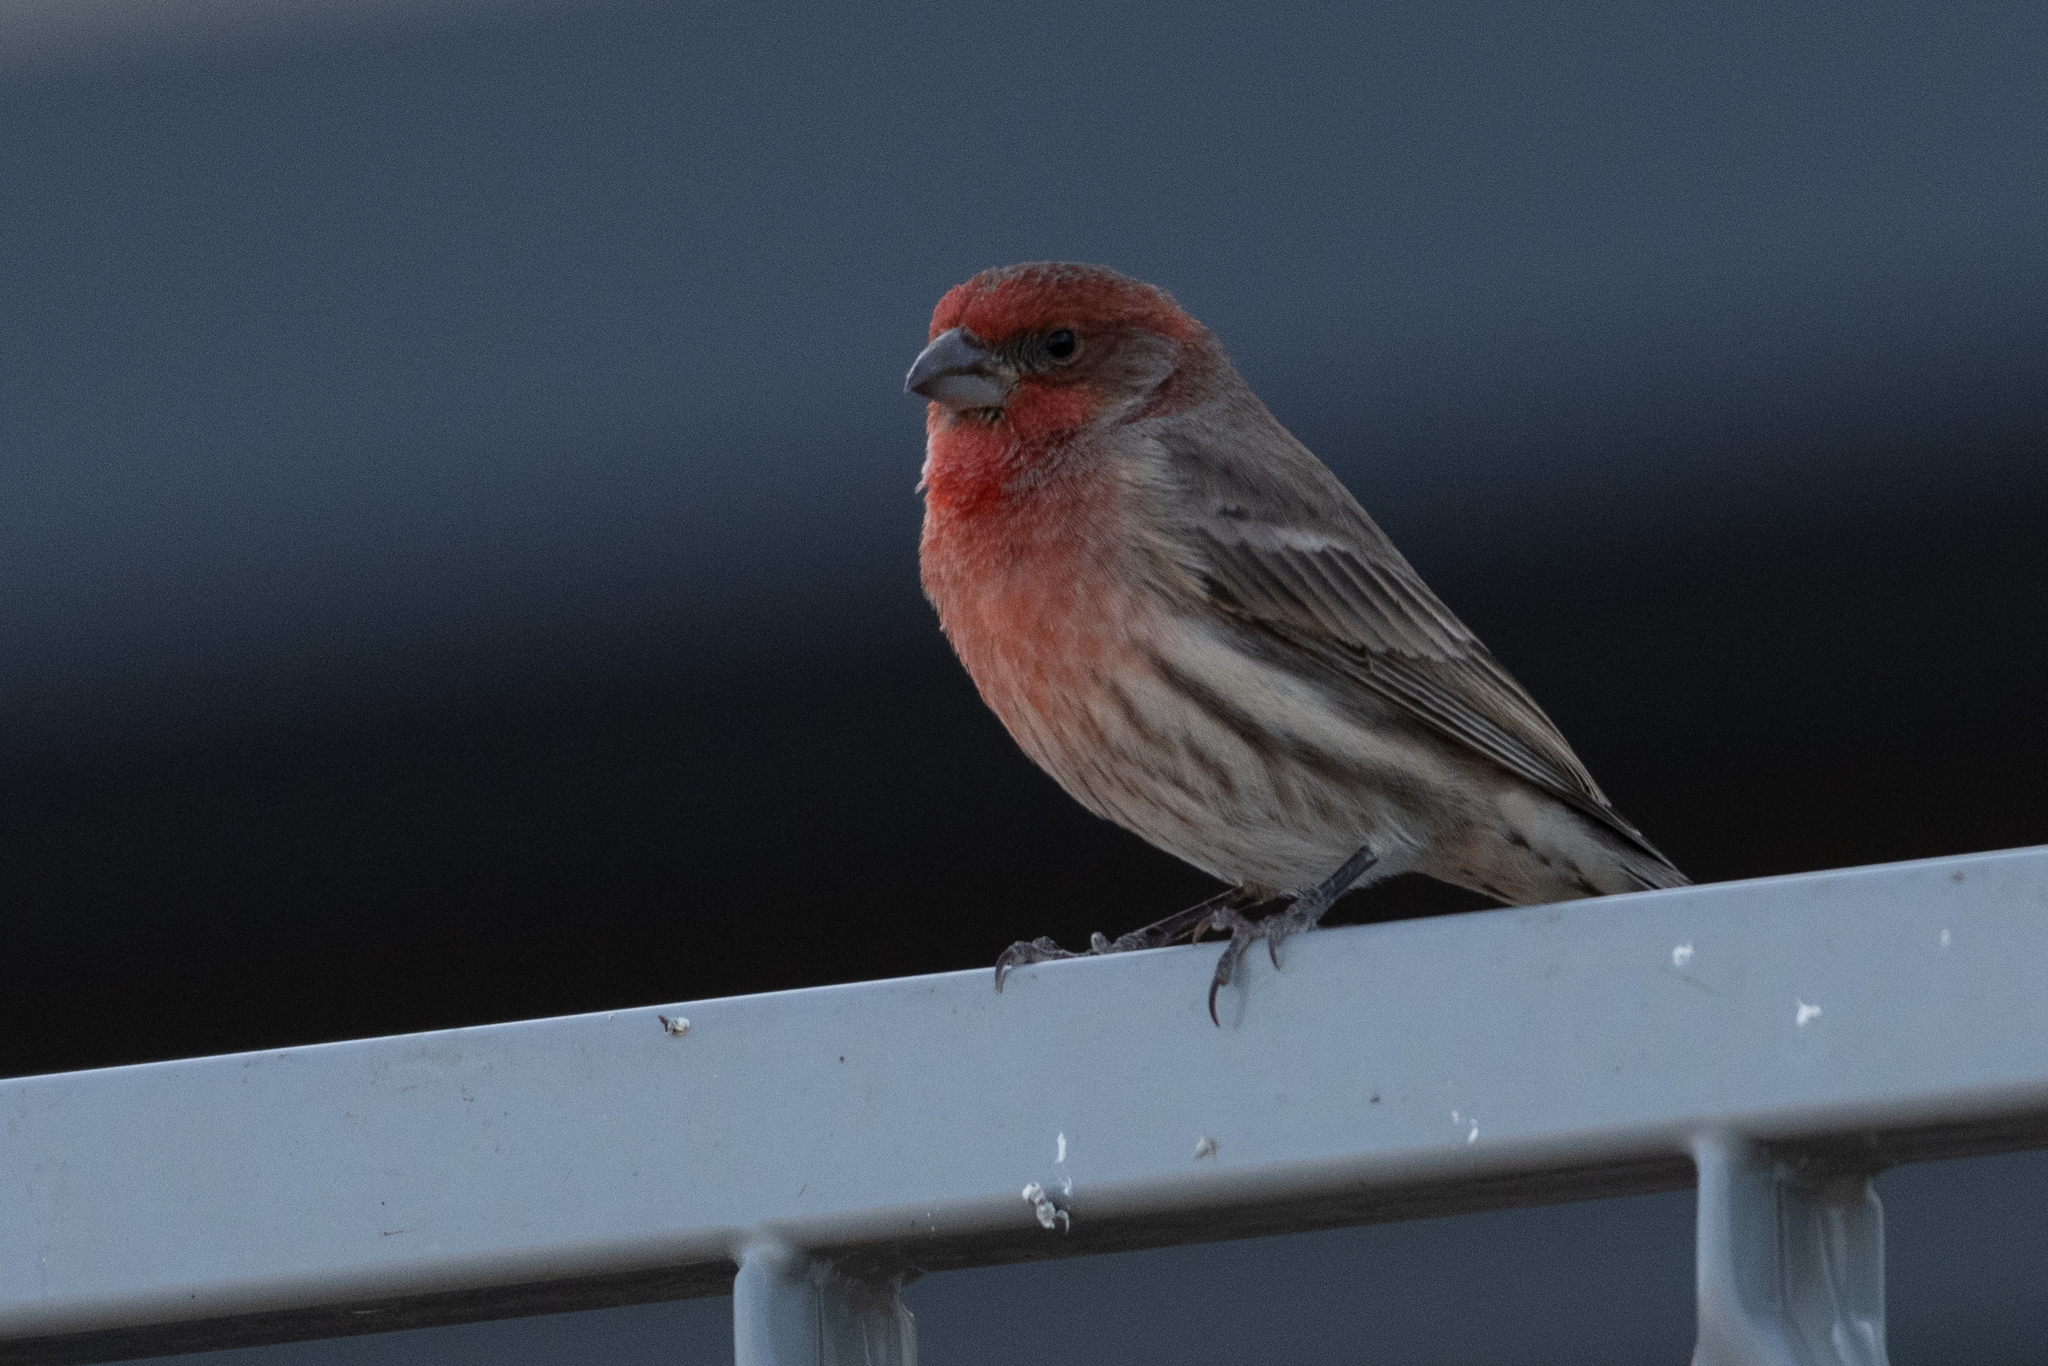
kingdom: Animalia
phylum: Chordata
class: Aves
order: Passeriformes
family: Fringillidae
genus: Haemorhous
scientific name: Haemorhous mexicanus
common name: House finch
